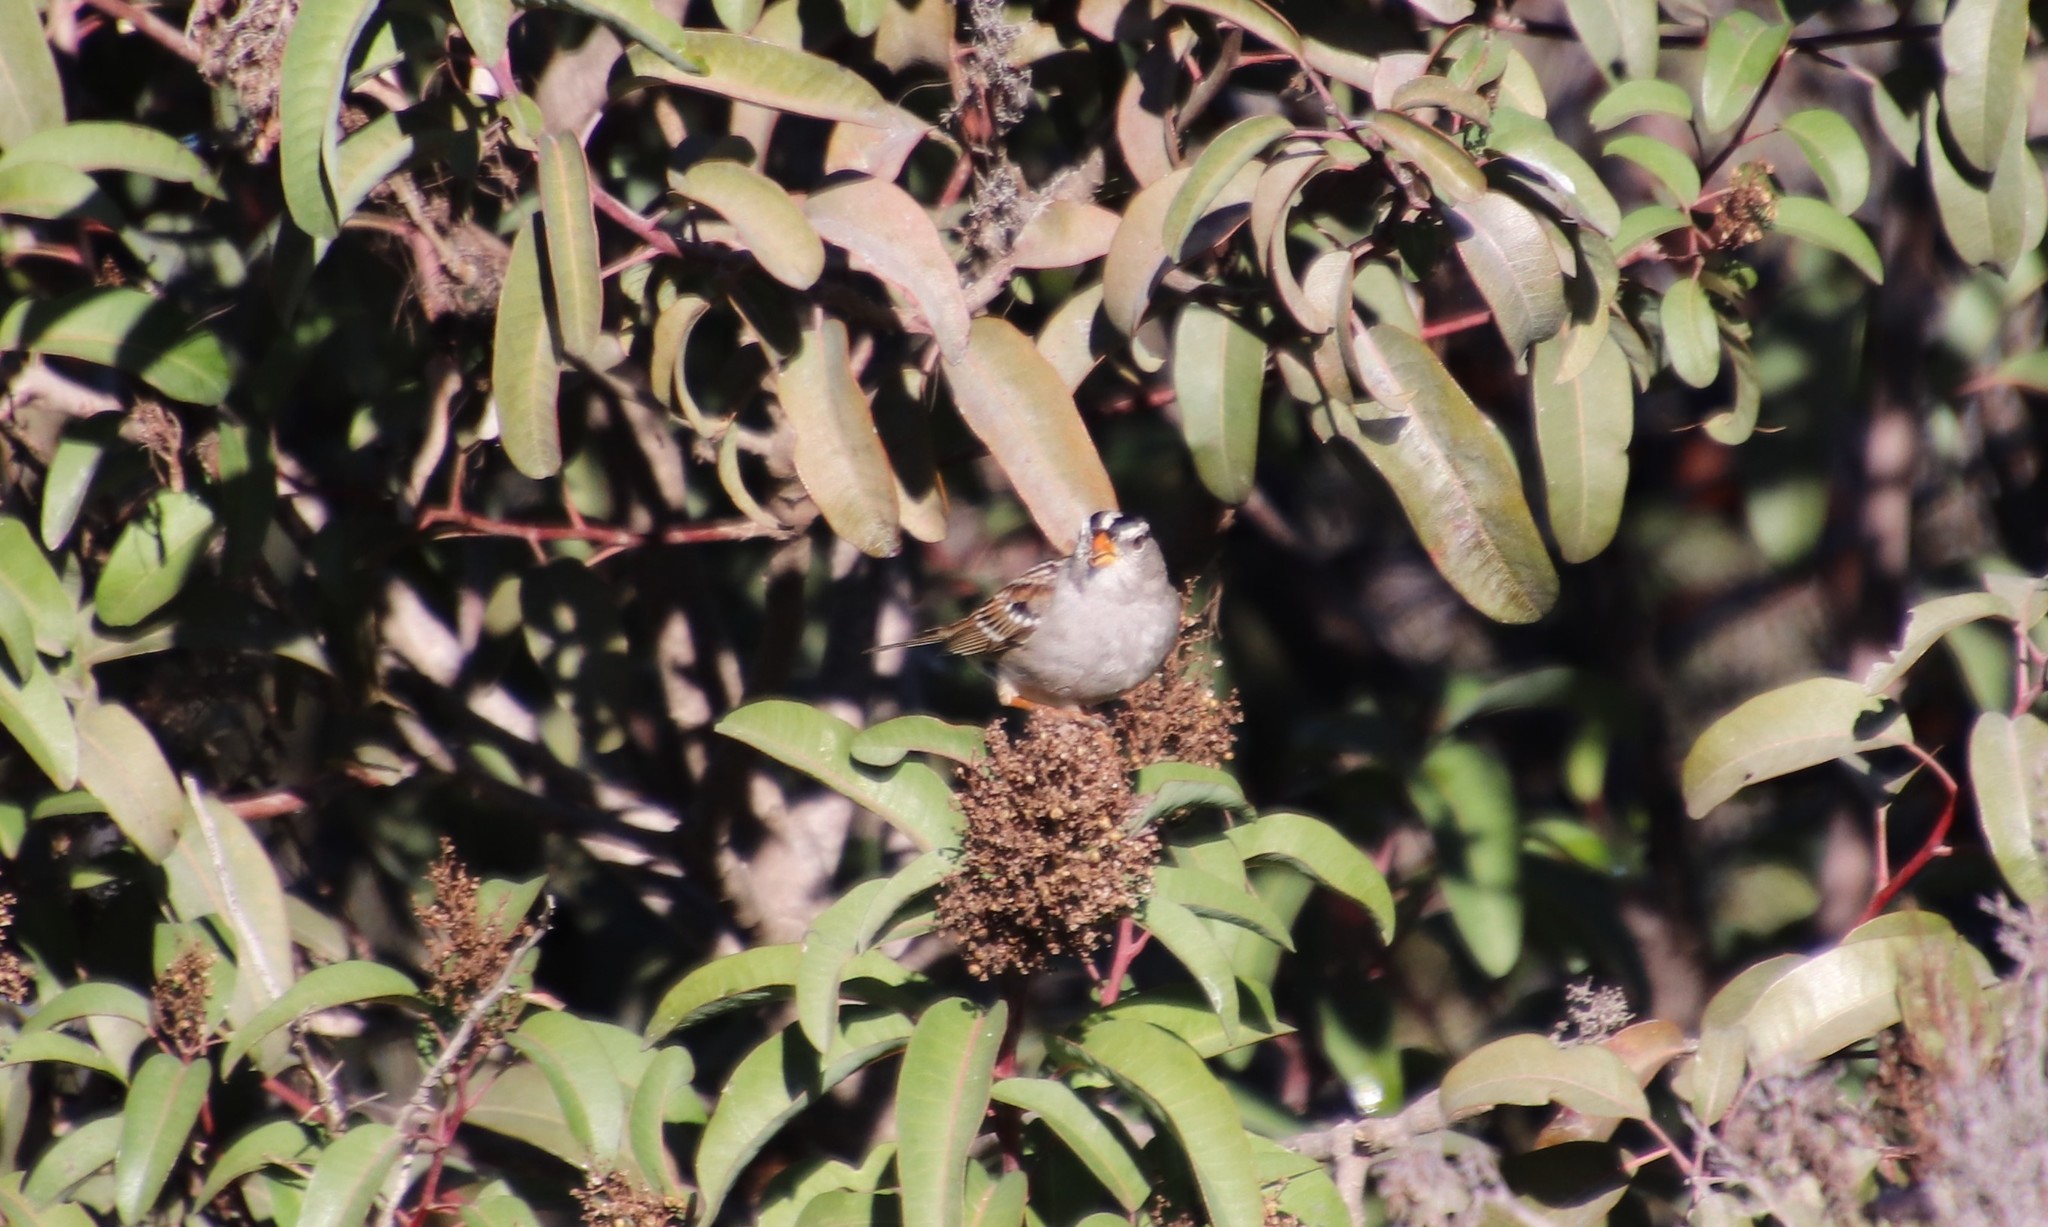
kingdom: Animalia
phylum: Chordata
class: Aves
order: Passeriformes
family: Passerellidae
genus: Zonotrichia
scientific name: Zonotrichia leucophrys
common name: White-crowned sparrow
